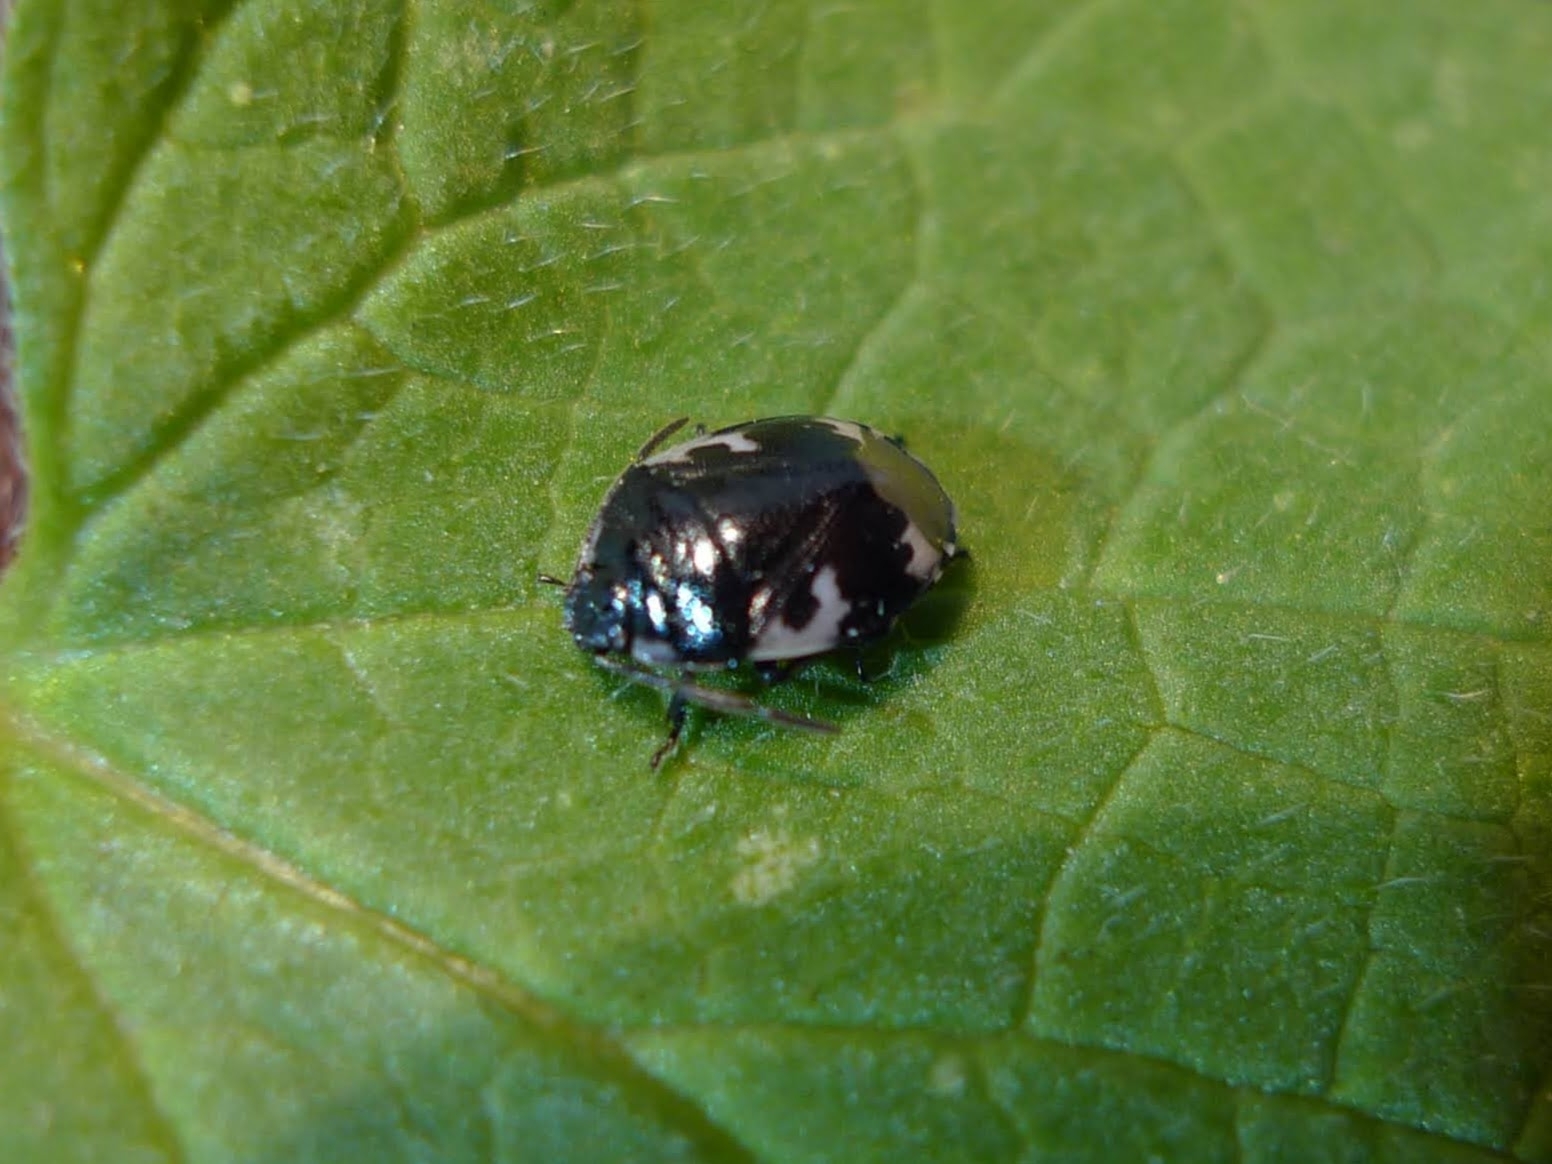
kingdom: Animalia
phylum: Arthropoda
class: Insecta
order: Hemiptera
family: Cydnidae
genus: Tritomegas
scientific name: Tritomegas bicolor
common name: Pied shieldbug
